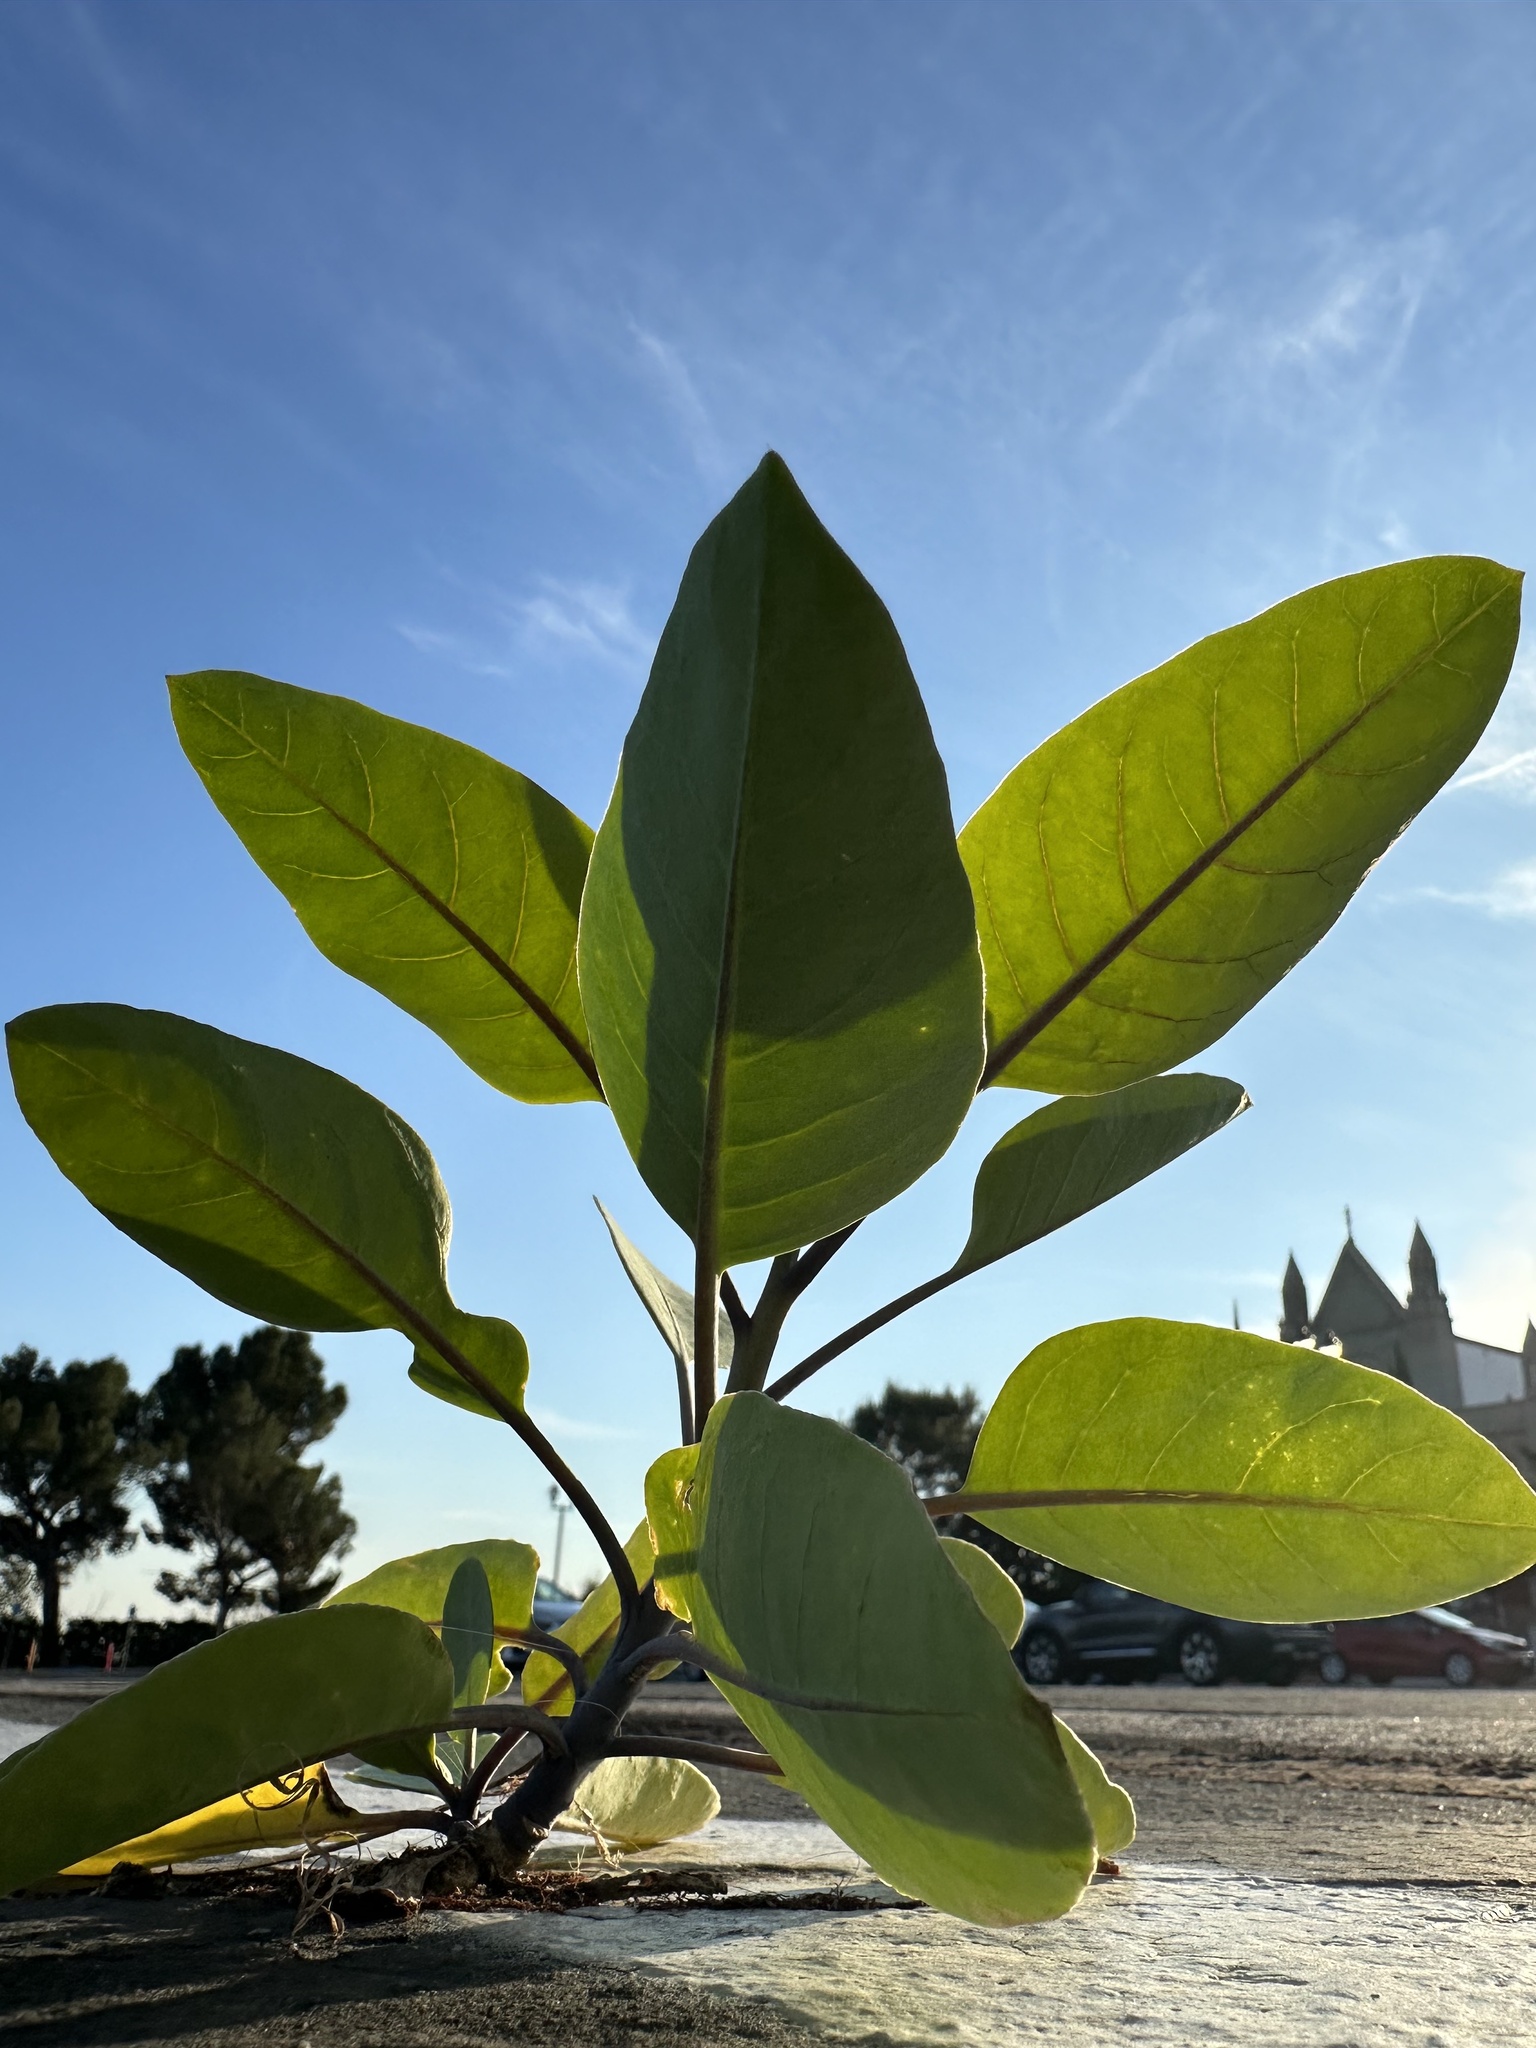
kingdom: Plantae
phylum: Tracheophyta
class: Magnoliopsida
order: Solanales
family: Solanaceae
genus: Nicotiana
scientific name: Nicotiana glauca
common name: Tree tobacco
